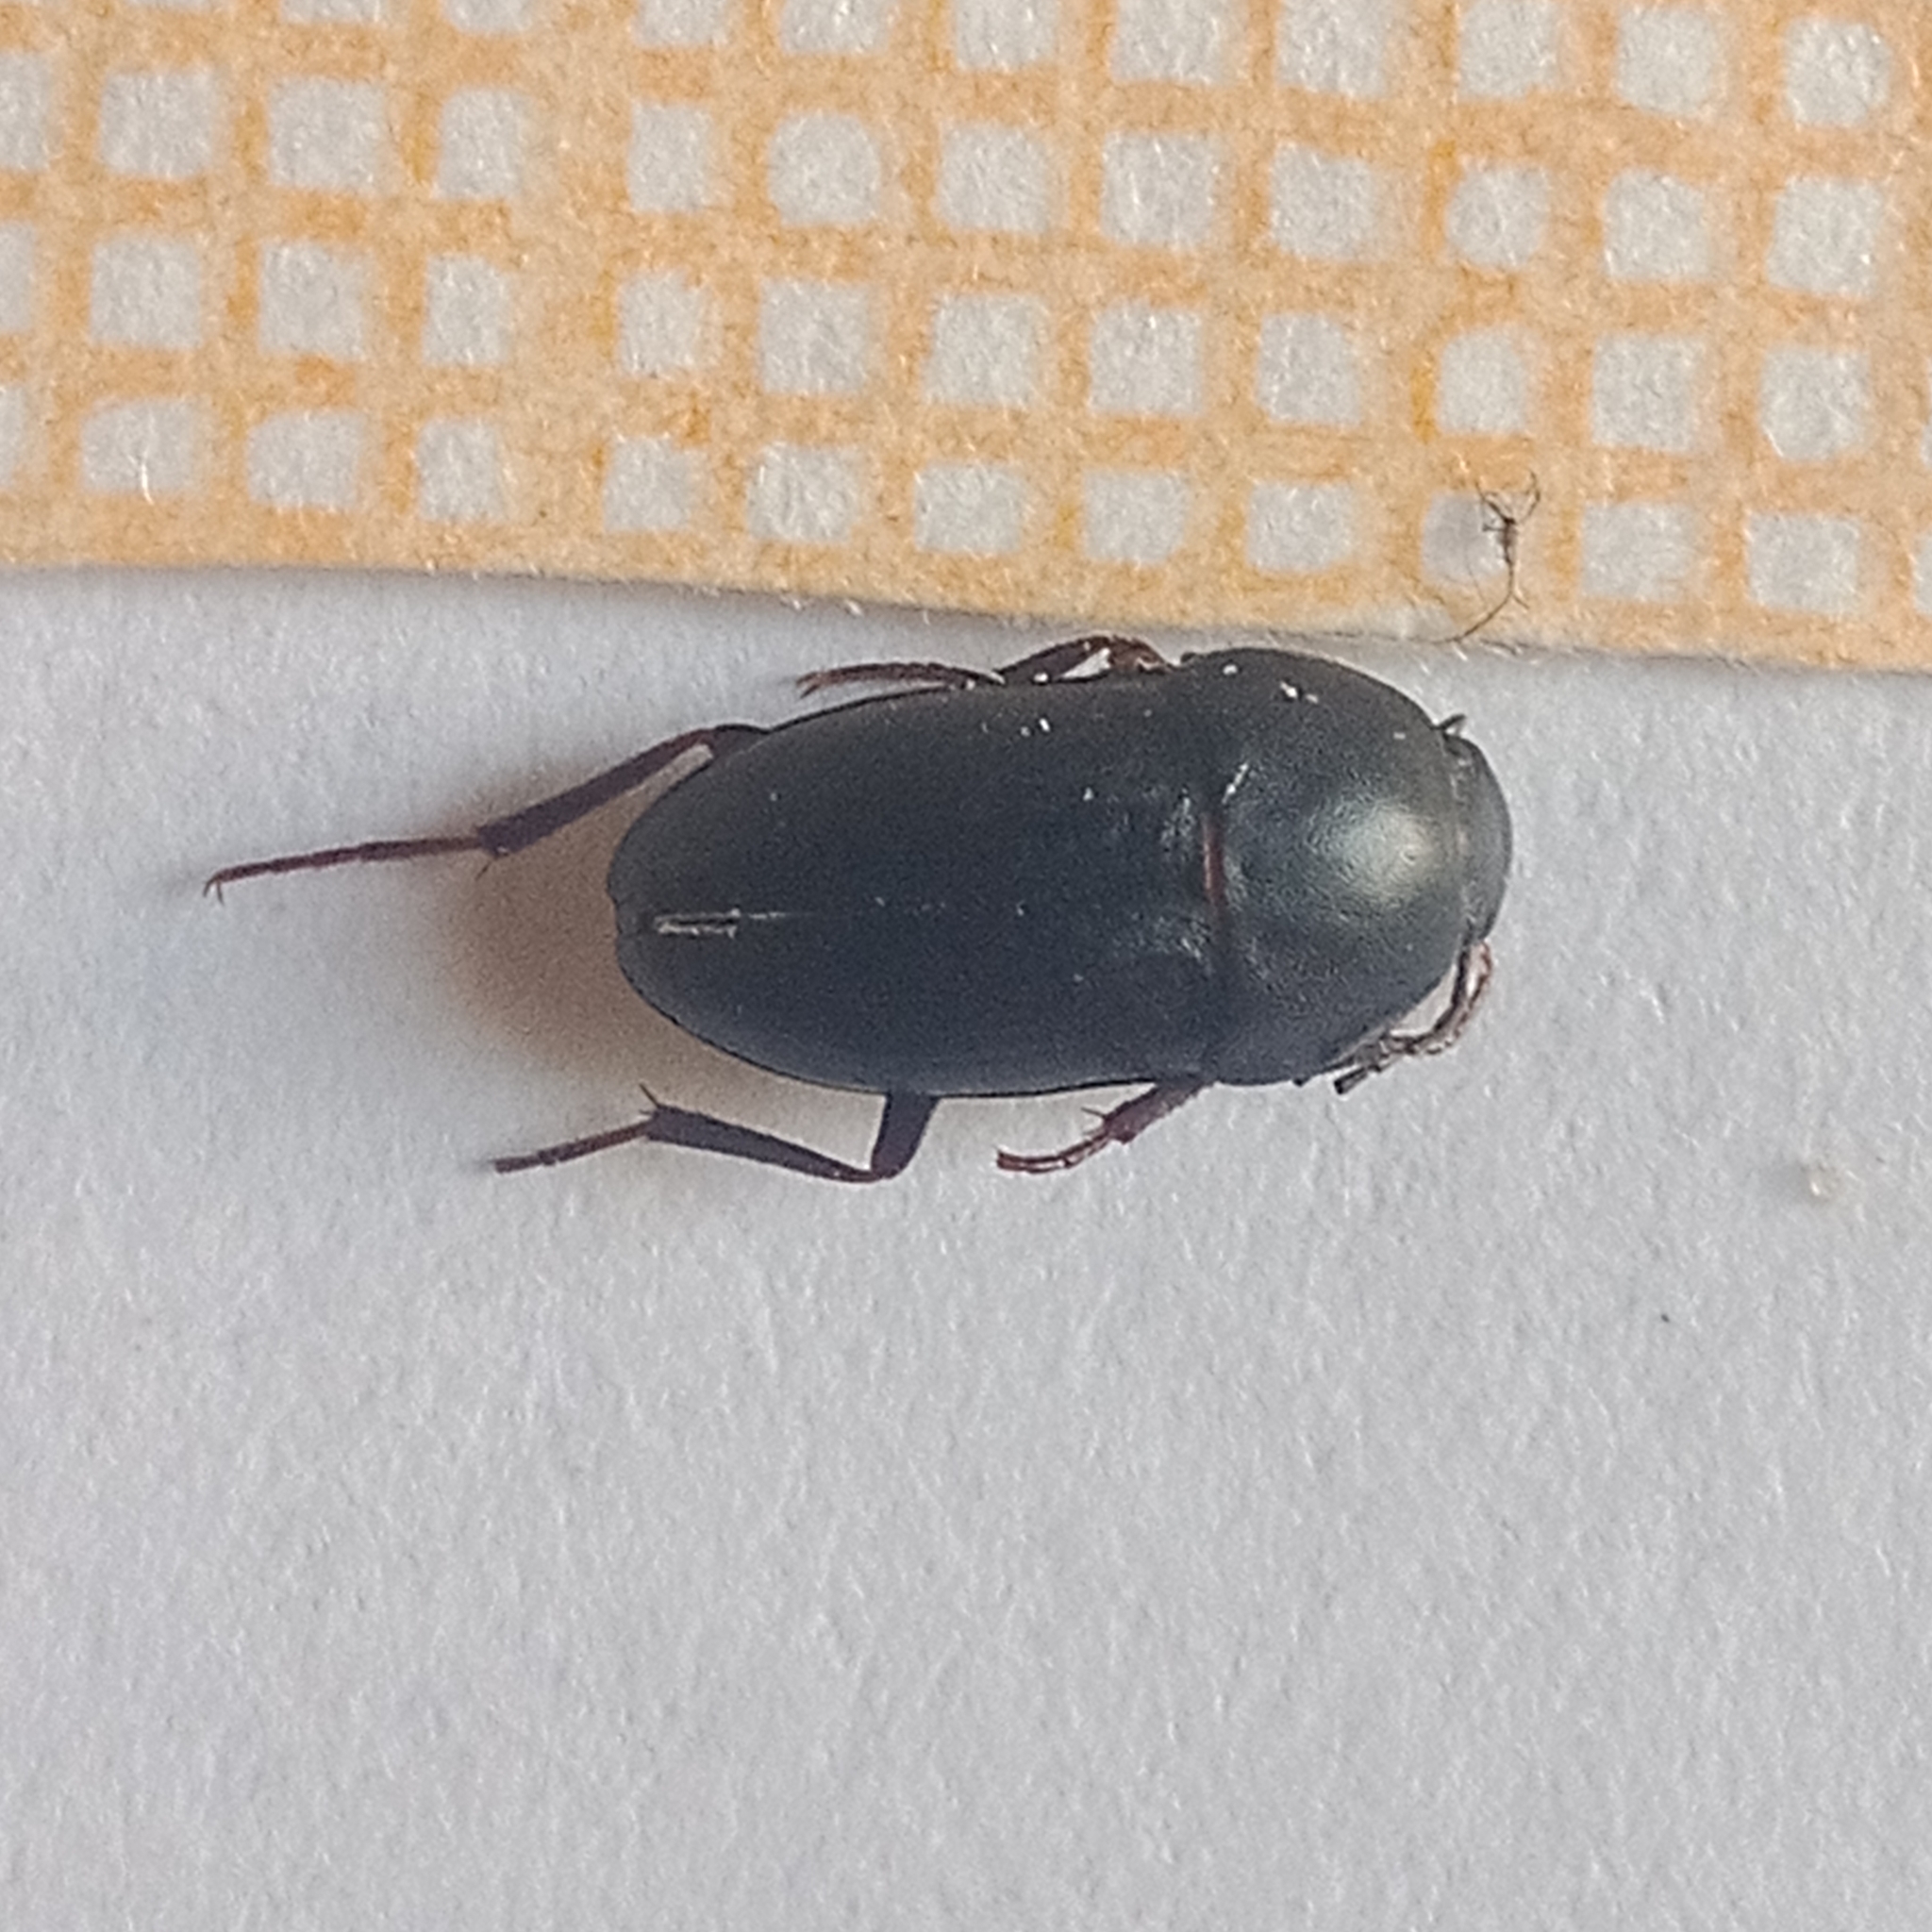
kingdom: Animalia
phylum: Arthropoda
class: Insecta
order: Coleoptera
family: Tenebrionidae
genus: Crypticus
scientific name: Crypticus quisquilius
